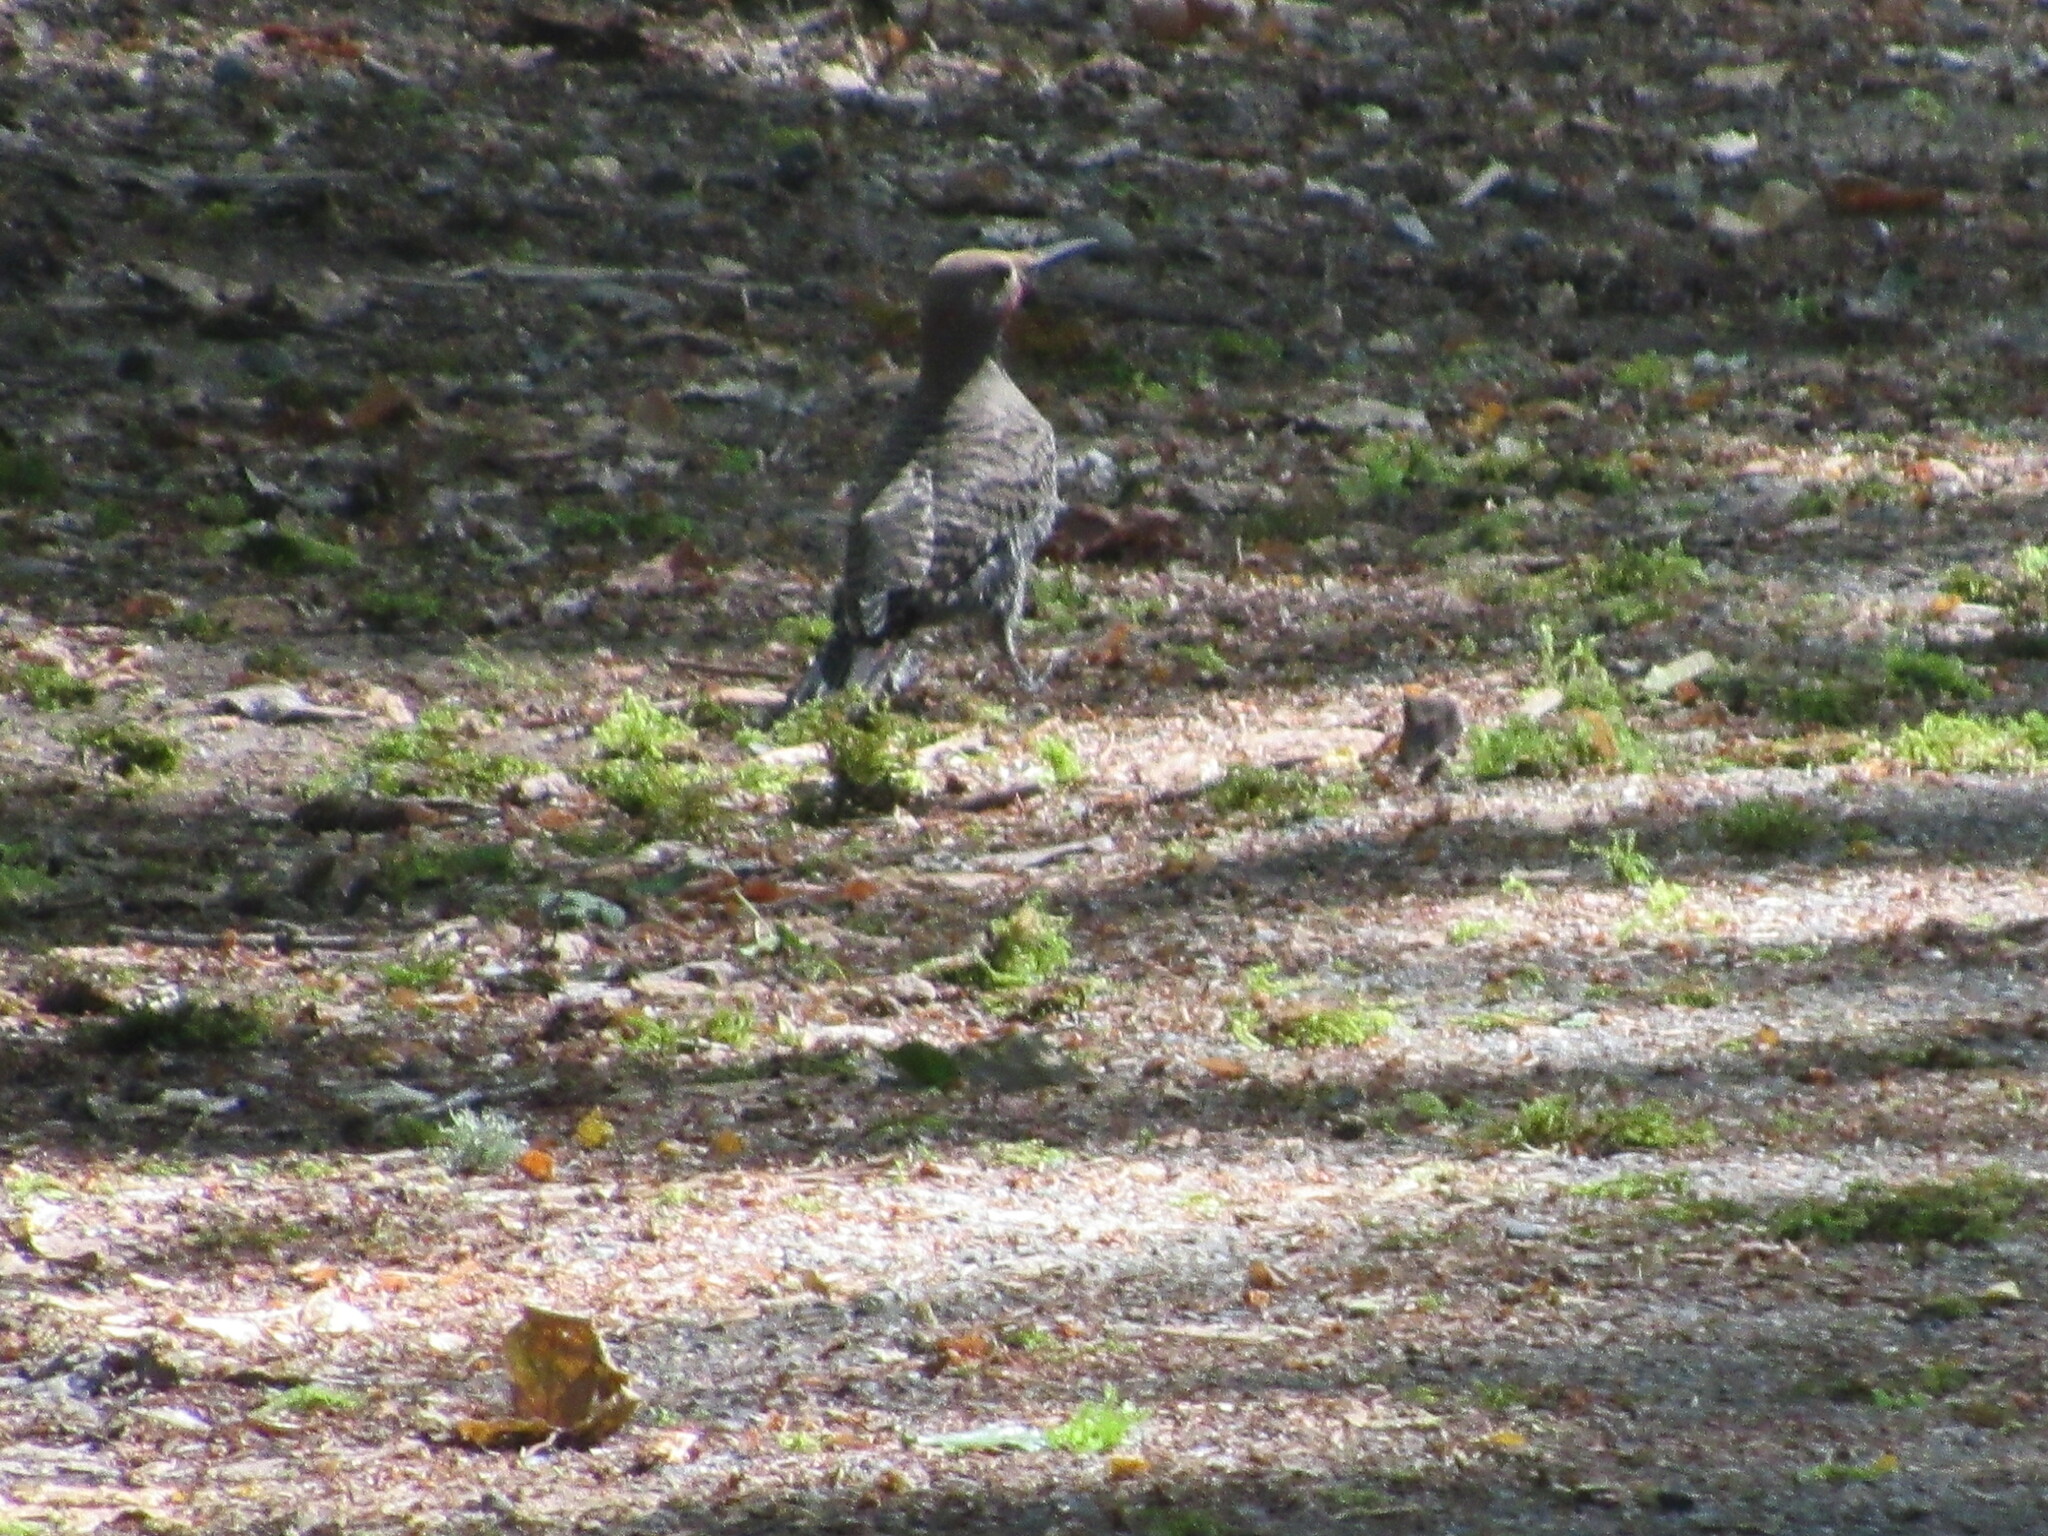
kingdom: Animalia
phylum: Chordata
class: Aves
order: Piciformes
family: Picidae
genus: Colaptes
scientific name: Colaptes auratus
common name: Northern flicker
